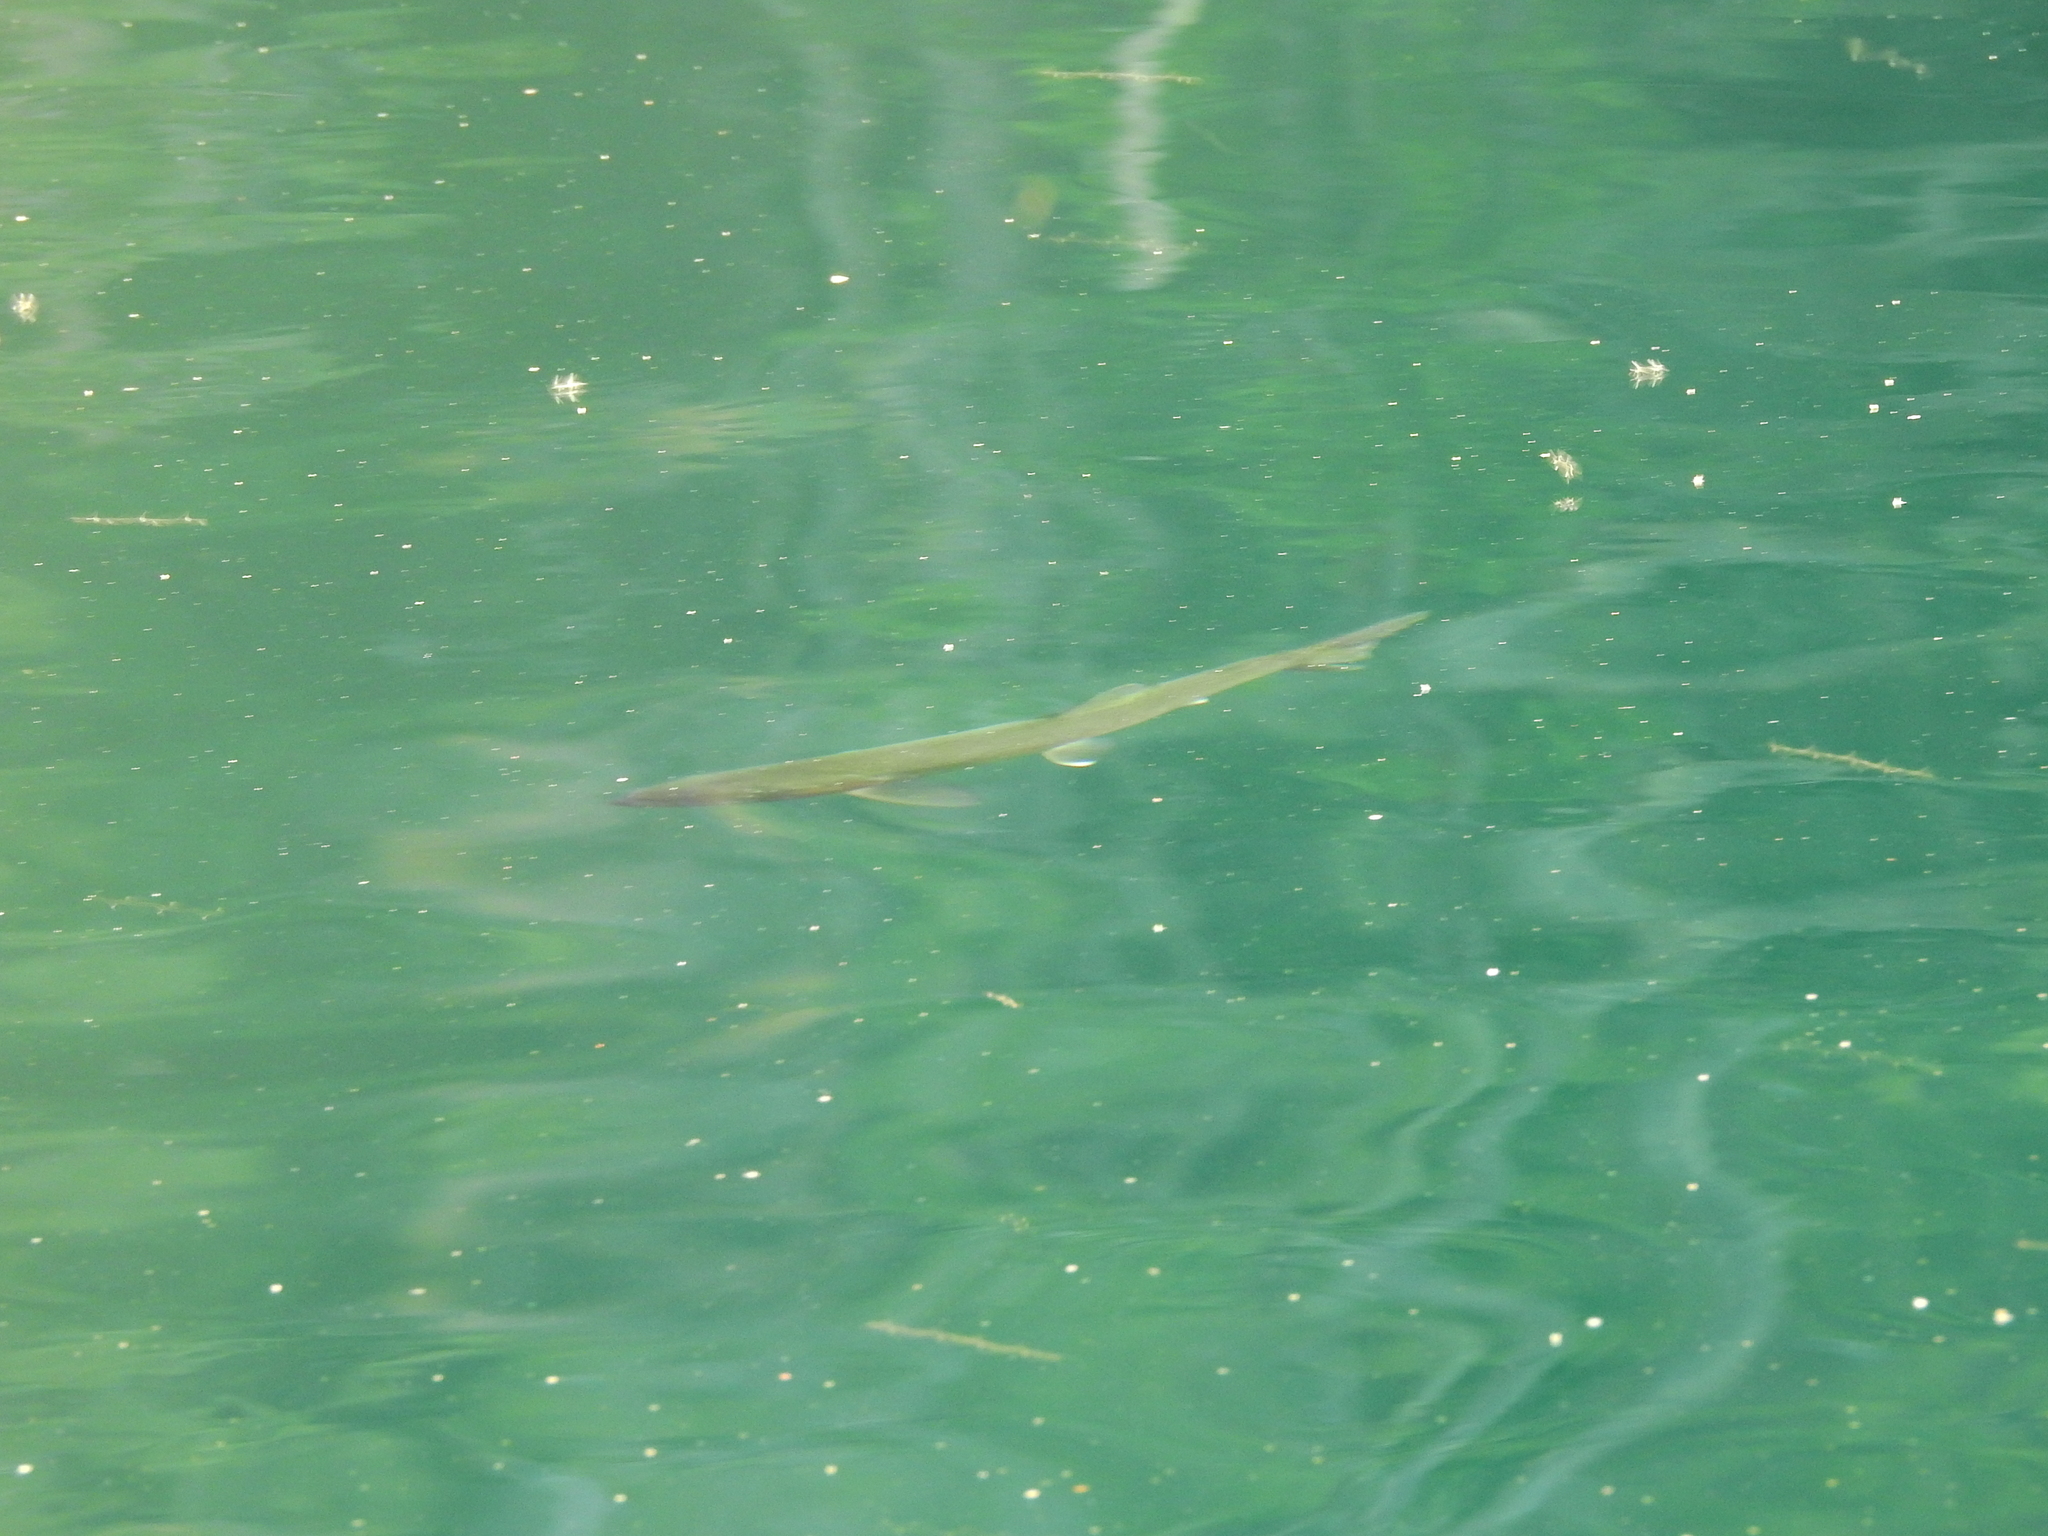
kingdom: Animalia
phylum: Chordata
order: Salmoniformes
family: Salmonidae
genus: Oncorhynchus
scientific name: Oncorhynchus mykiss
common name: Rainbow trout
